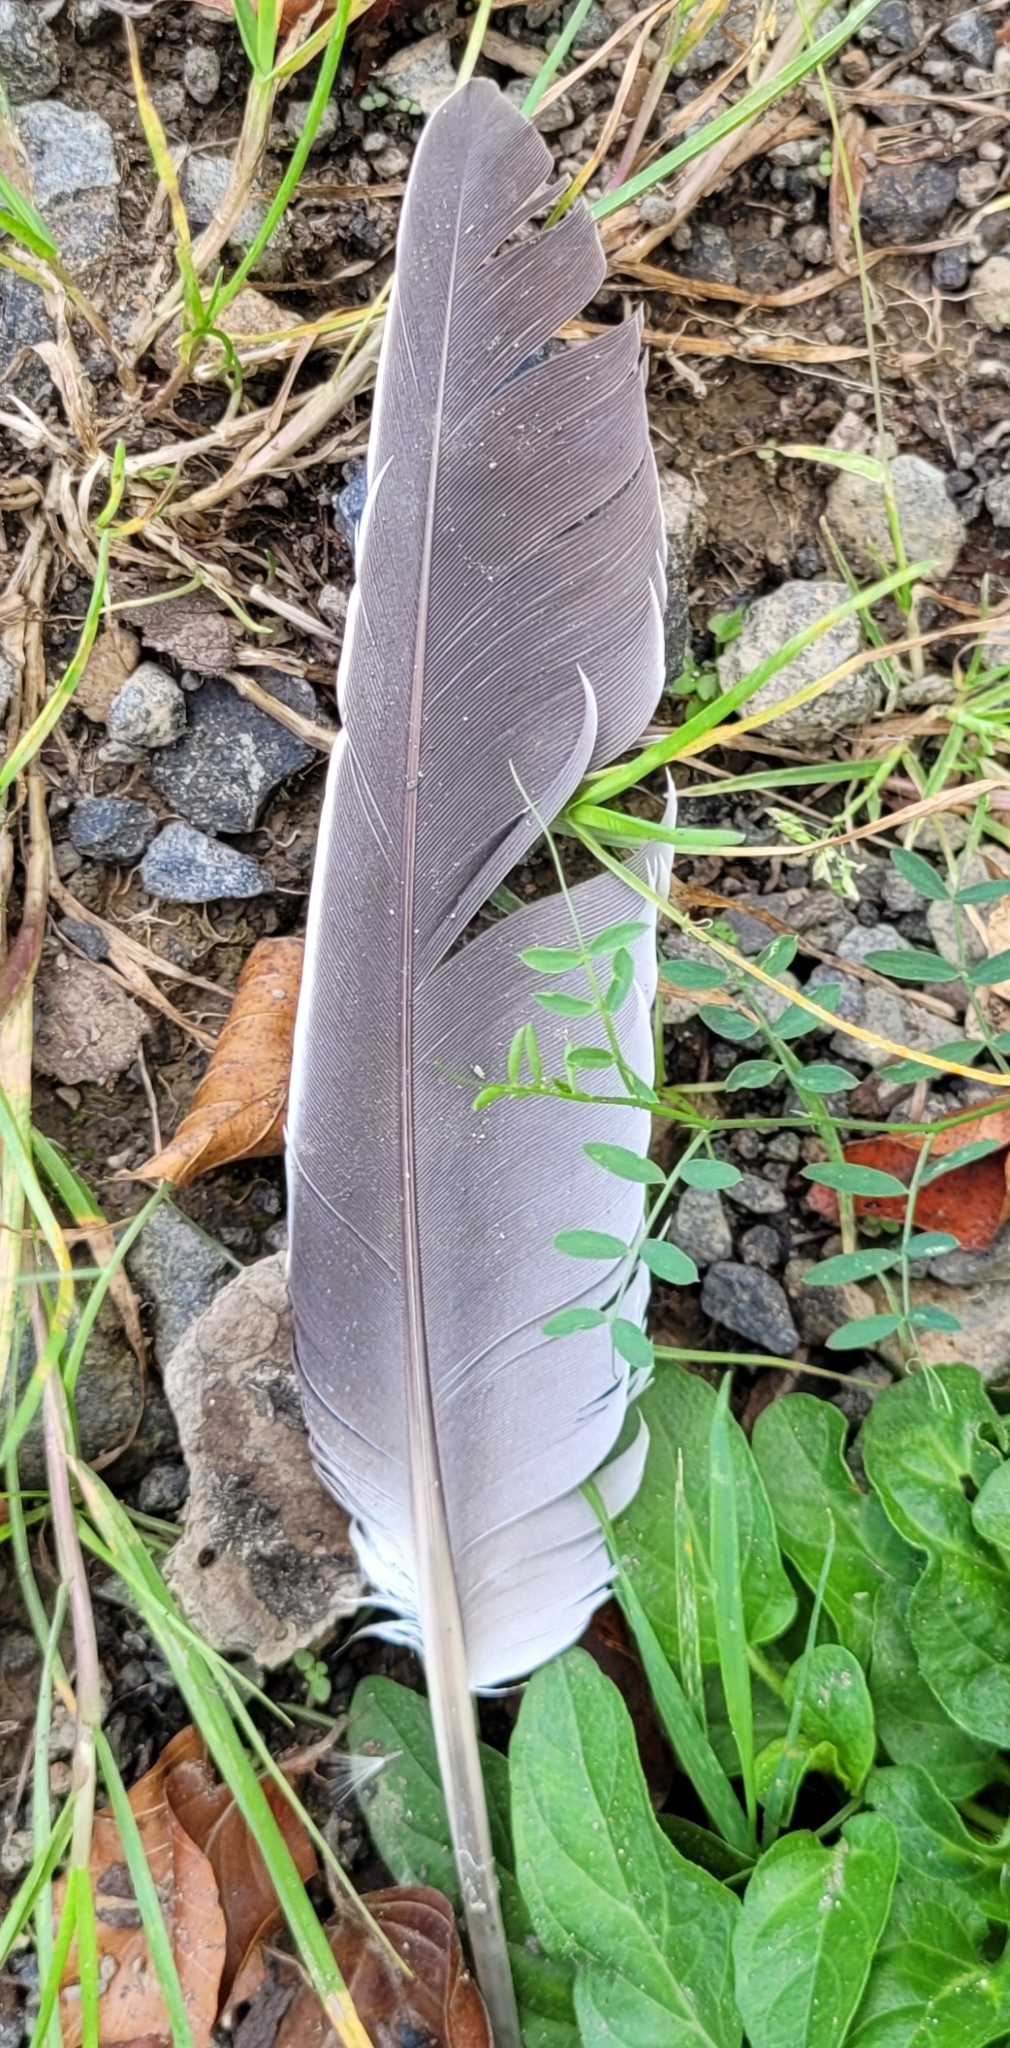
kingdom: Animalia
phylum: Chordata
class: Aves
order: Columbiformes
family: Columbidae
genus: Columba
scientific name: Columba palumbus
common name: Common wood pigeon
